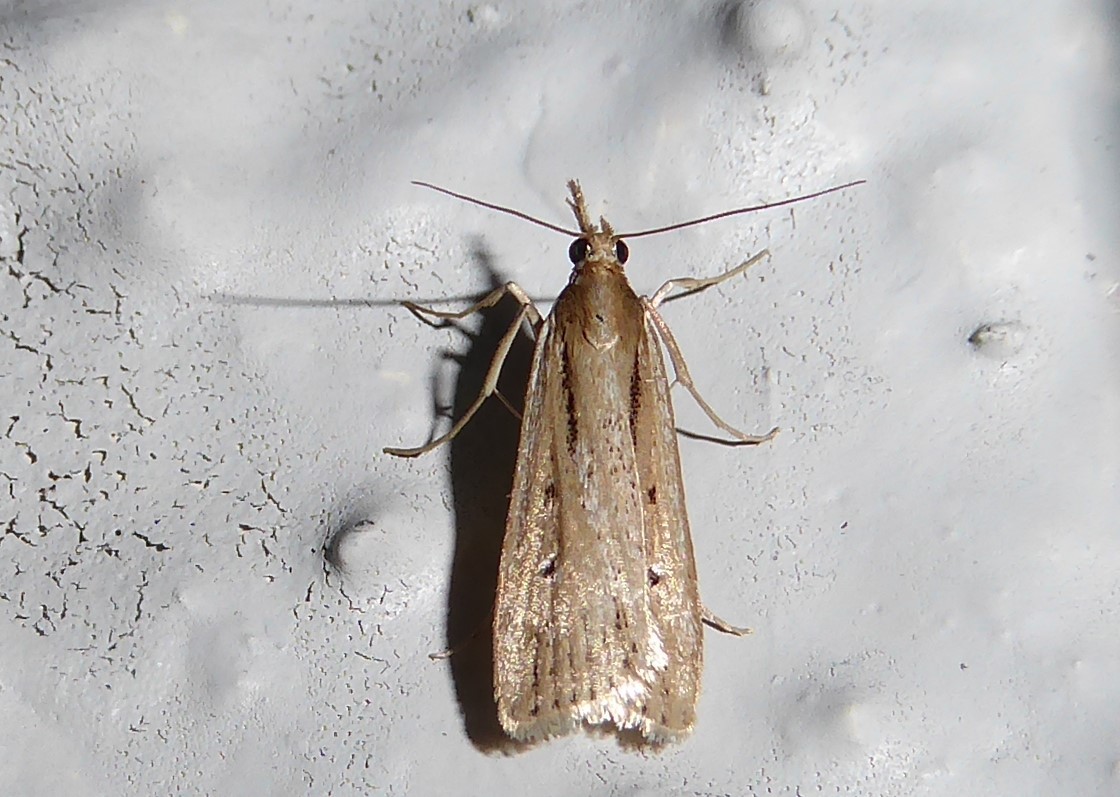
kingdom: Animalia
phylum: Arthropoda
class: Insecta
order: Lepidoptera
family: Crambidae
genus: Eudonia
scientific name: Eudonia sabulosella
